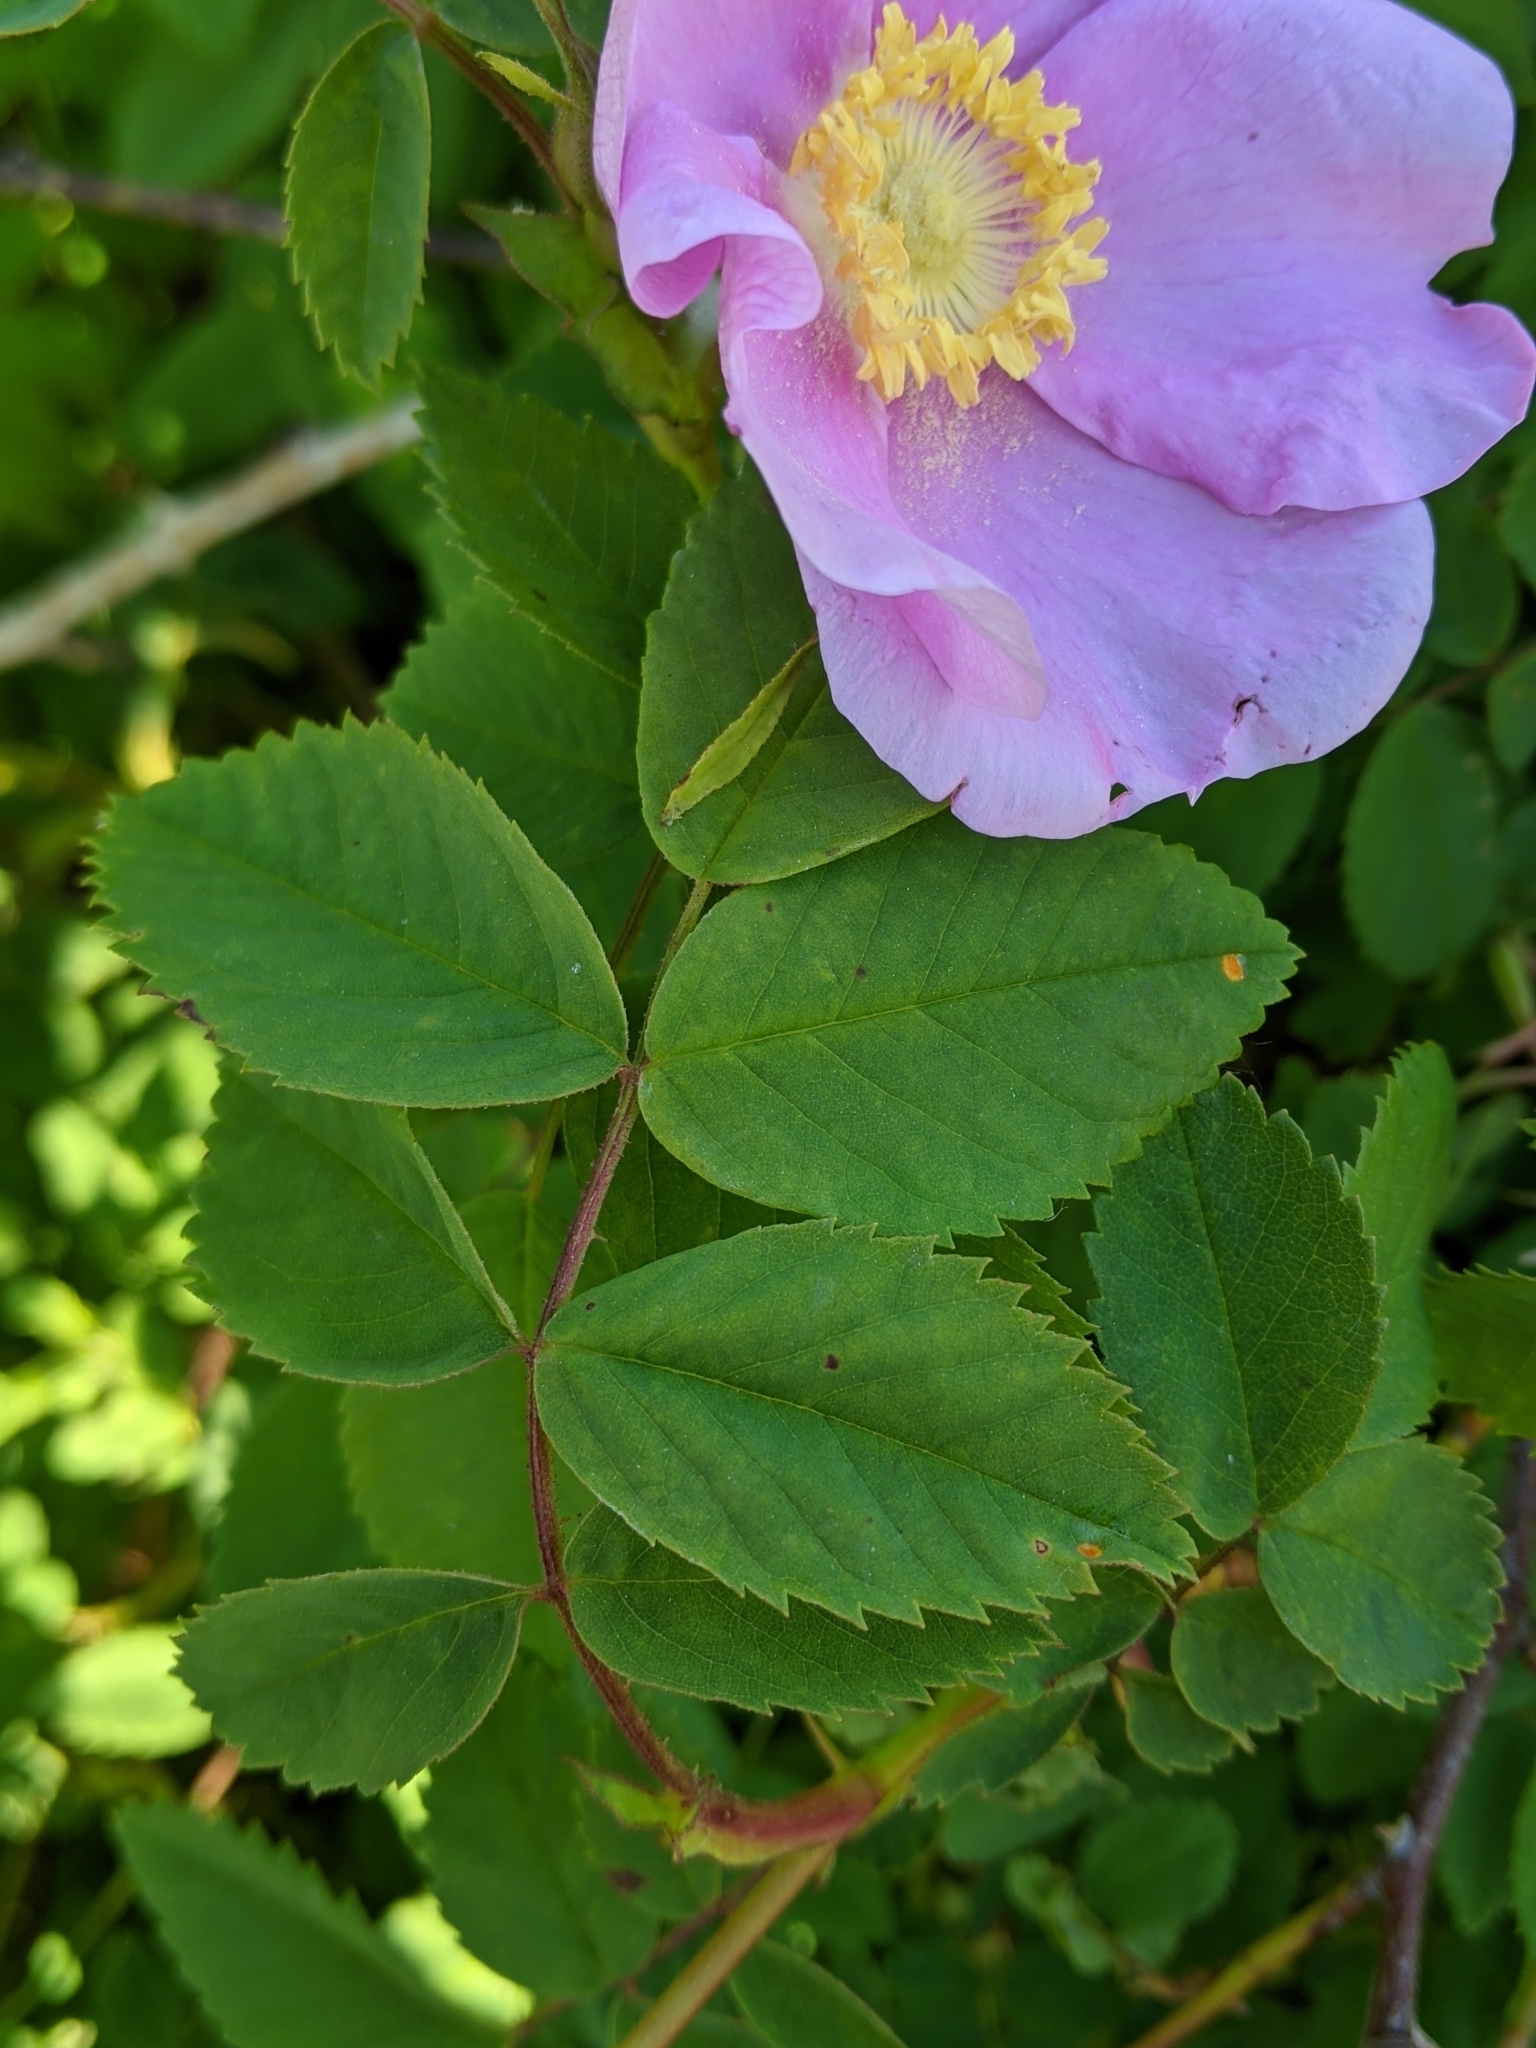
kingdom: Plantae
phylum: Tracheophyta
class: Magnoliopsida
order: Rosales
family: Rosaceae
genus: Rosa
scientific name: Rosa nutkana
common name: Nootka rose
